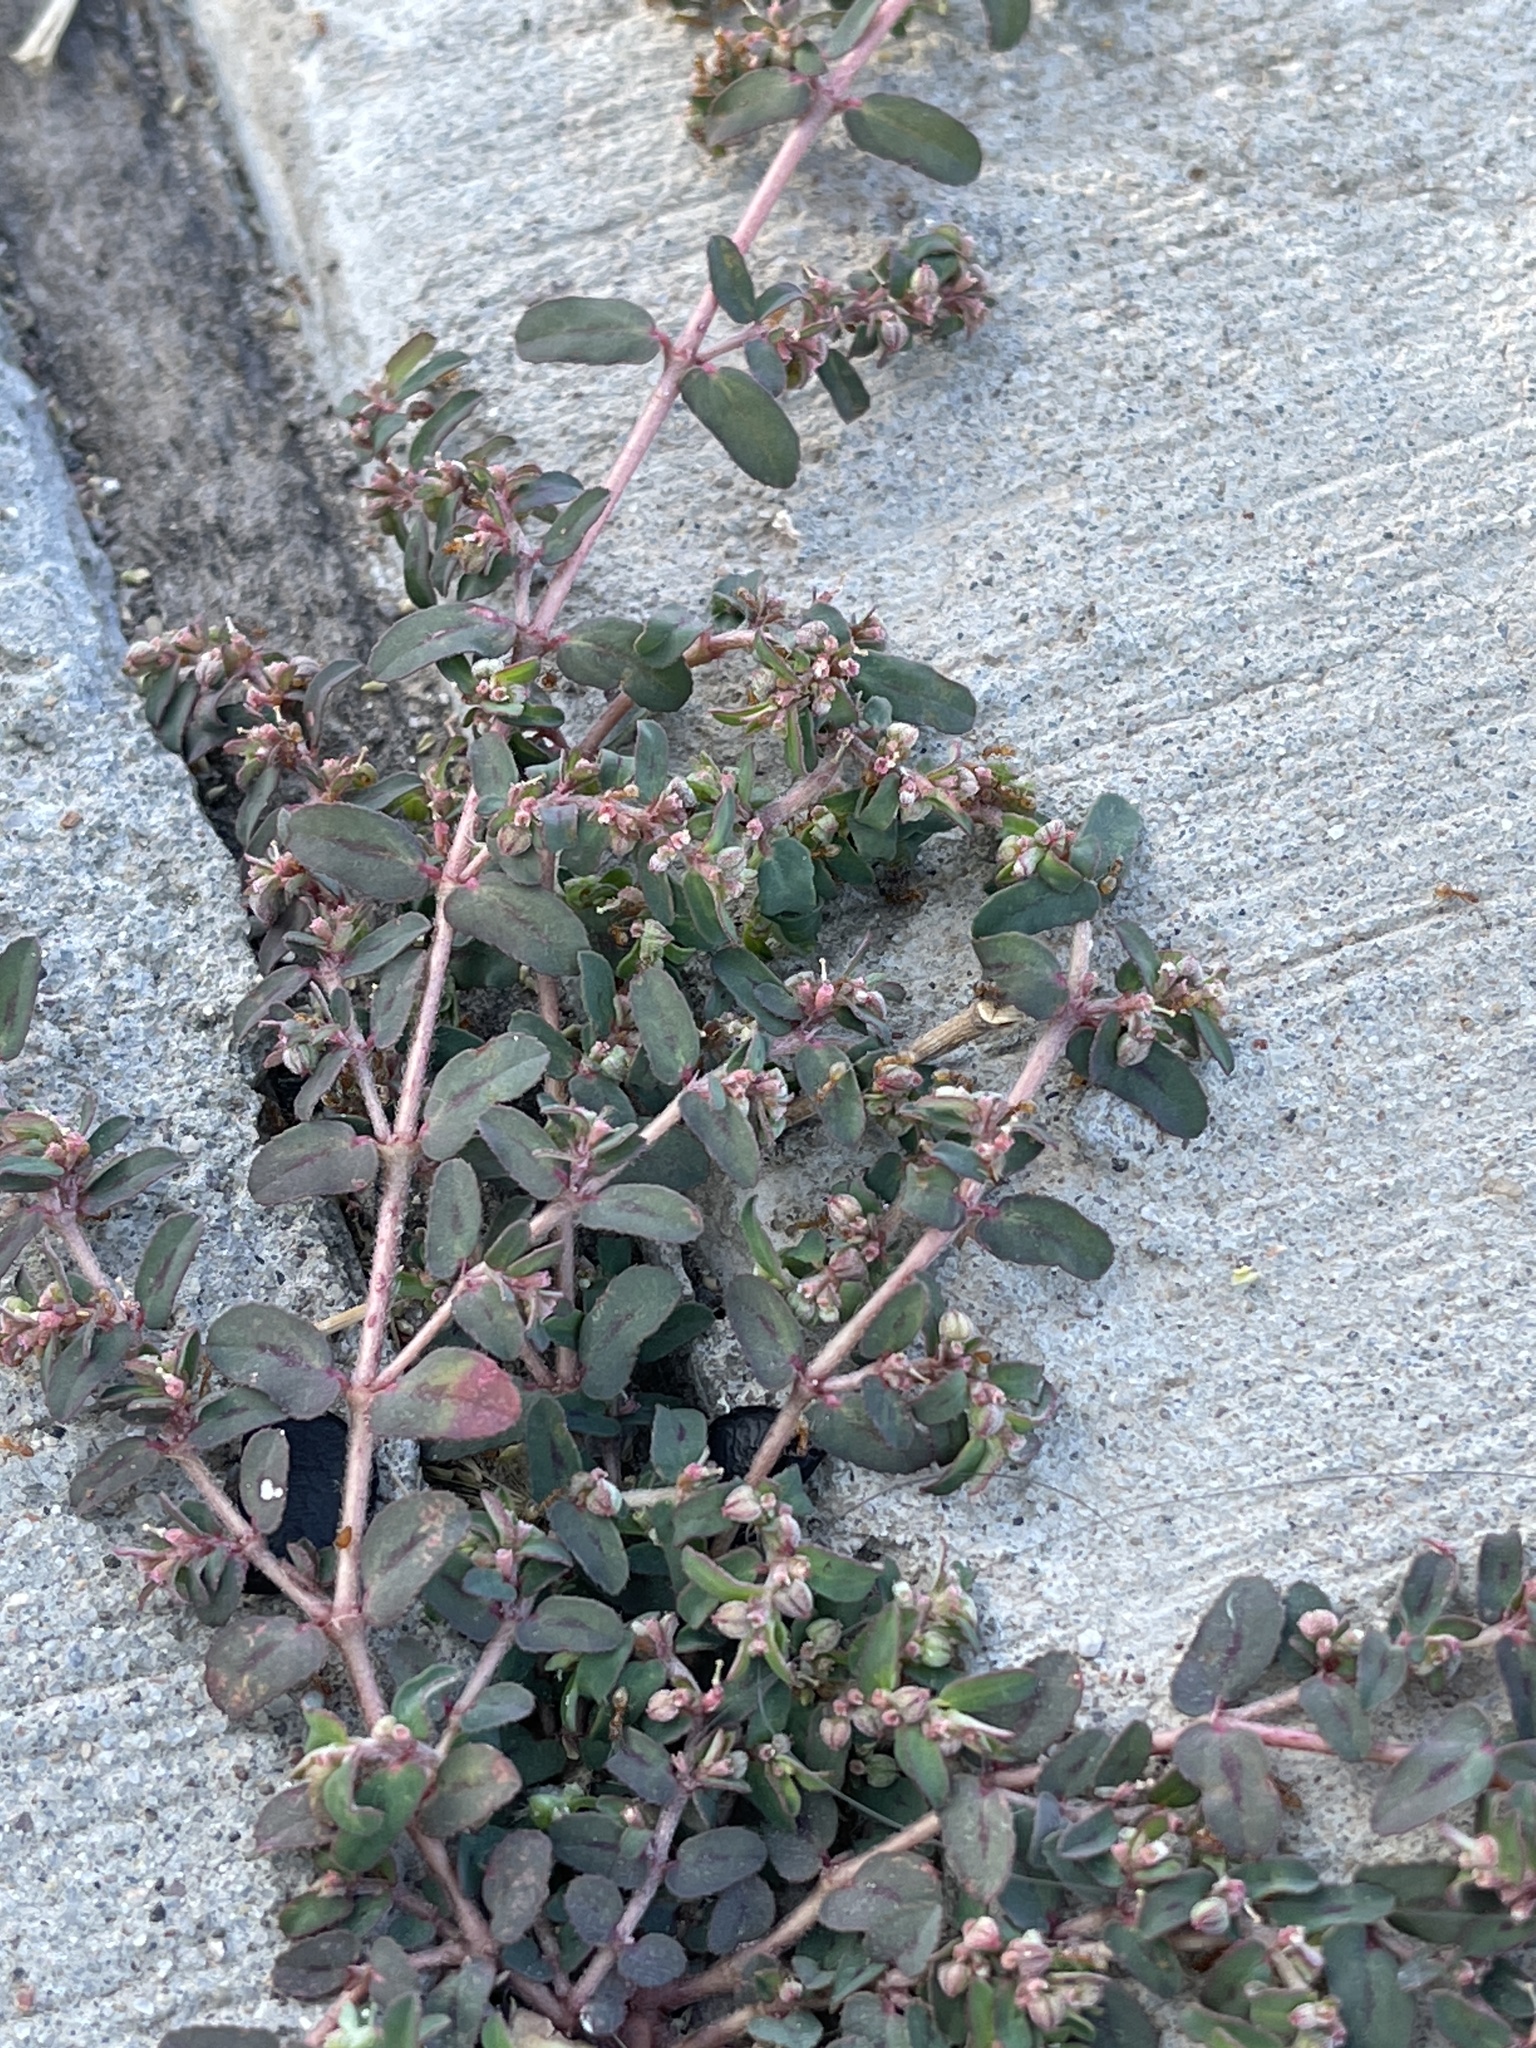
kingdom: Plantae
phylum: Tracheophyta
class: Magnoliopsida
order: Malpighiales
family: Euphorbiaceae
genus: Euphorbia
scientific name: Euphorbia maculata
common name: Spotted spurge
